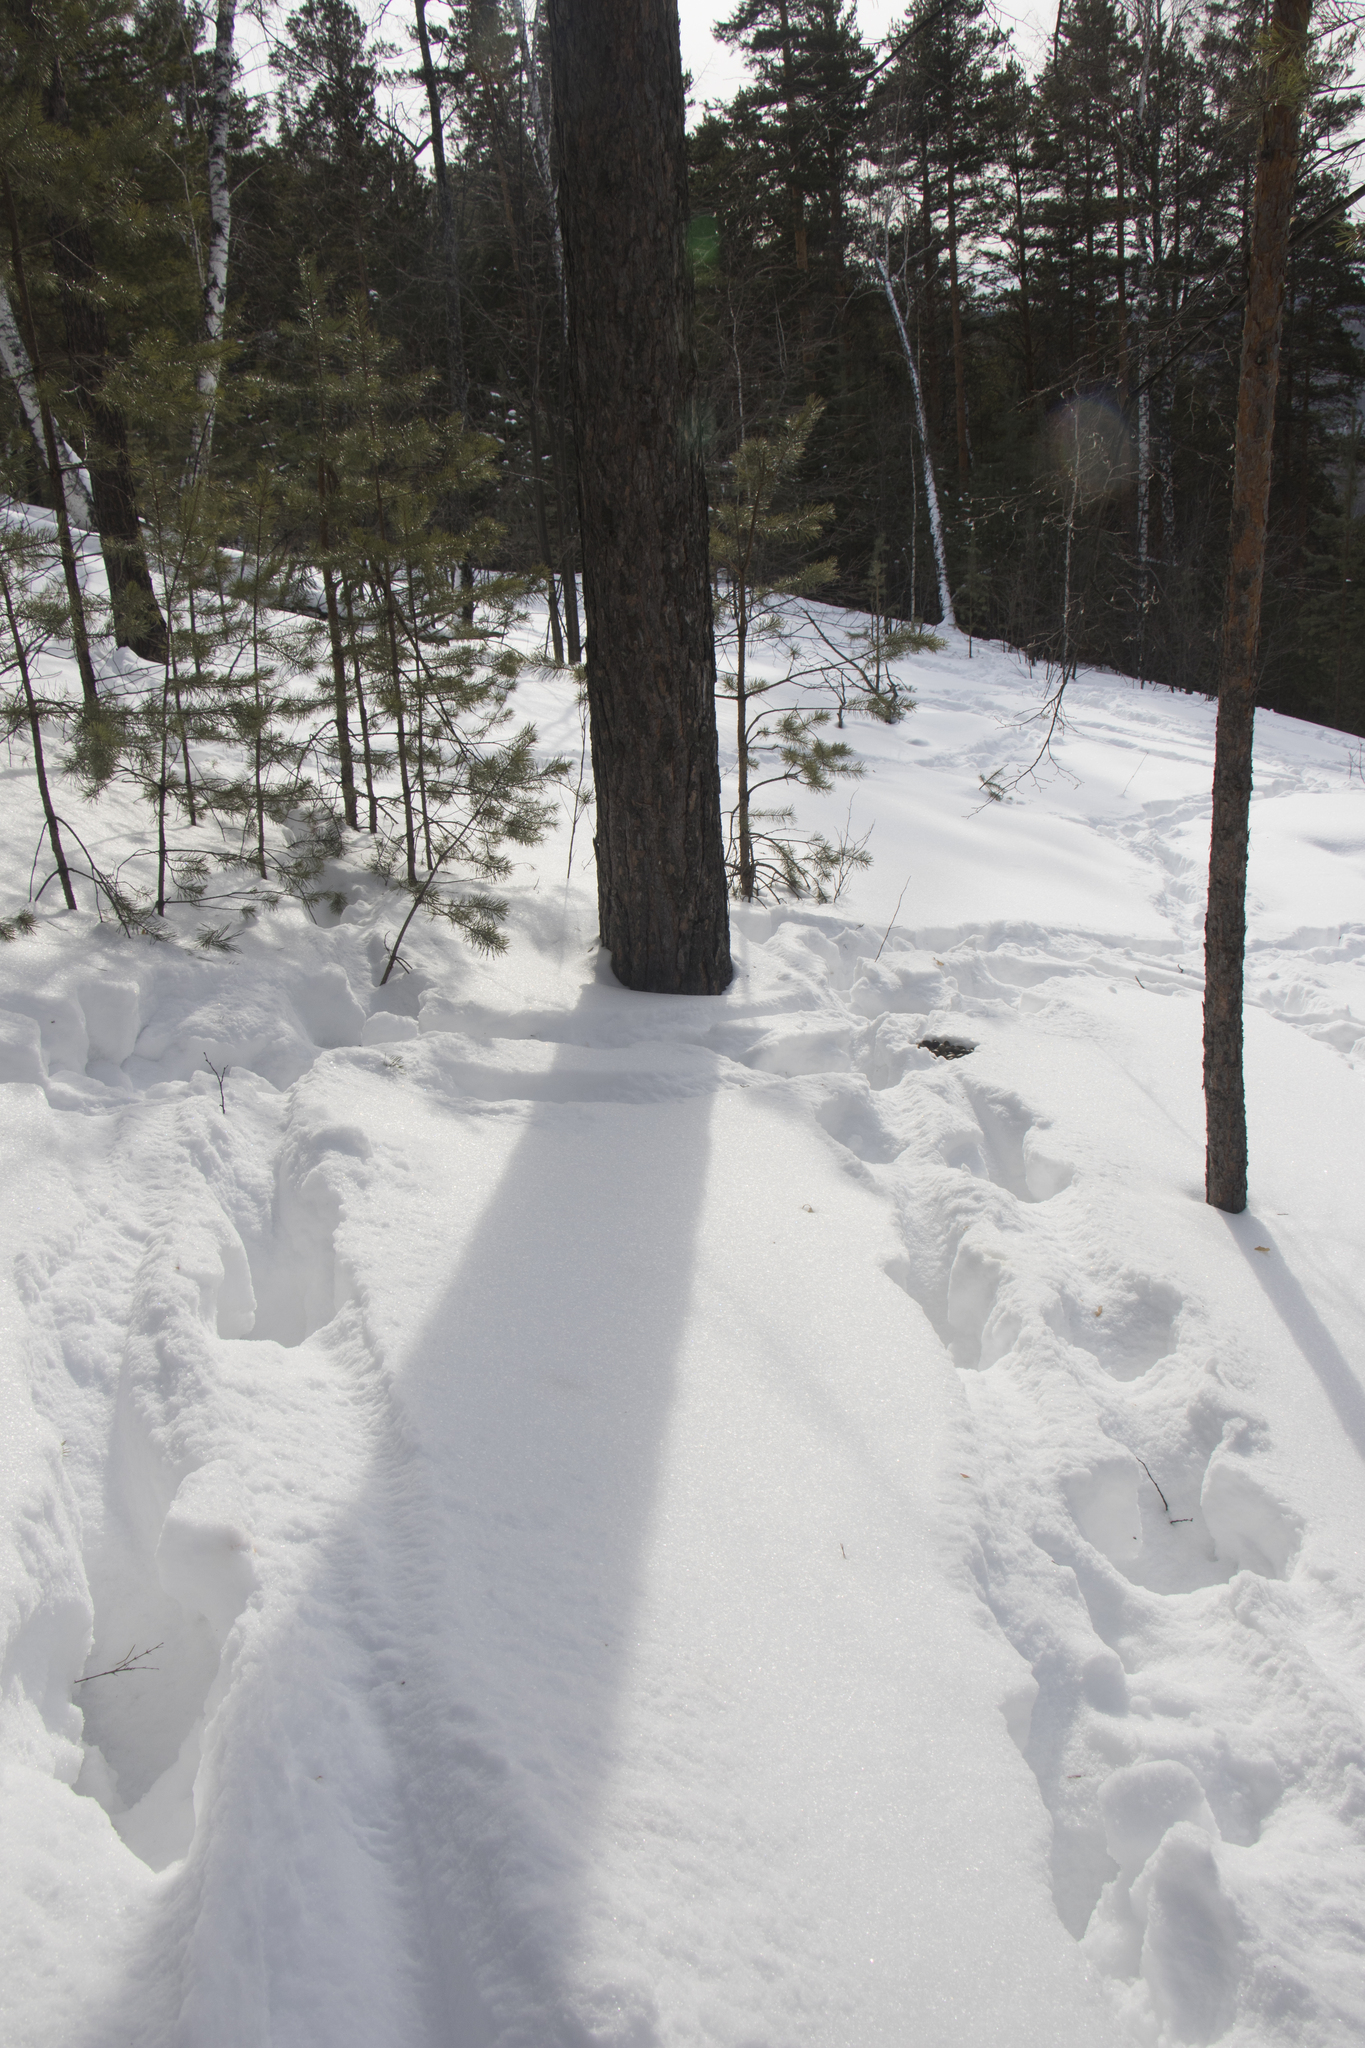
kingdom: Animalia
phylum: Chordata
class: Mammalia
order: Artiodactyla
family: Cervidae
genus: Alces
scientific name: Alces alces
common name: Moose
